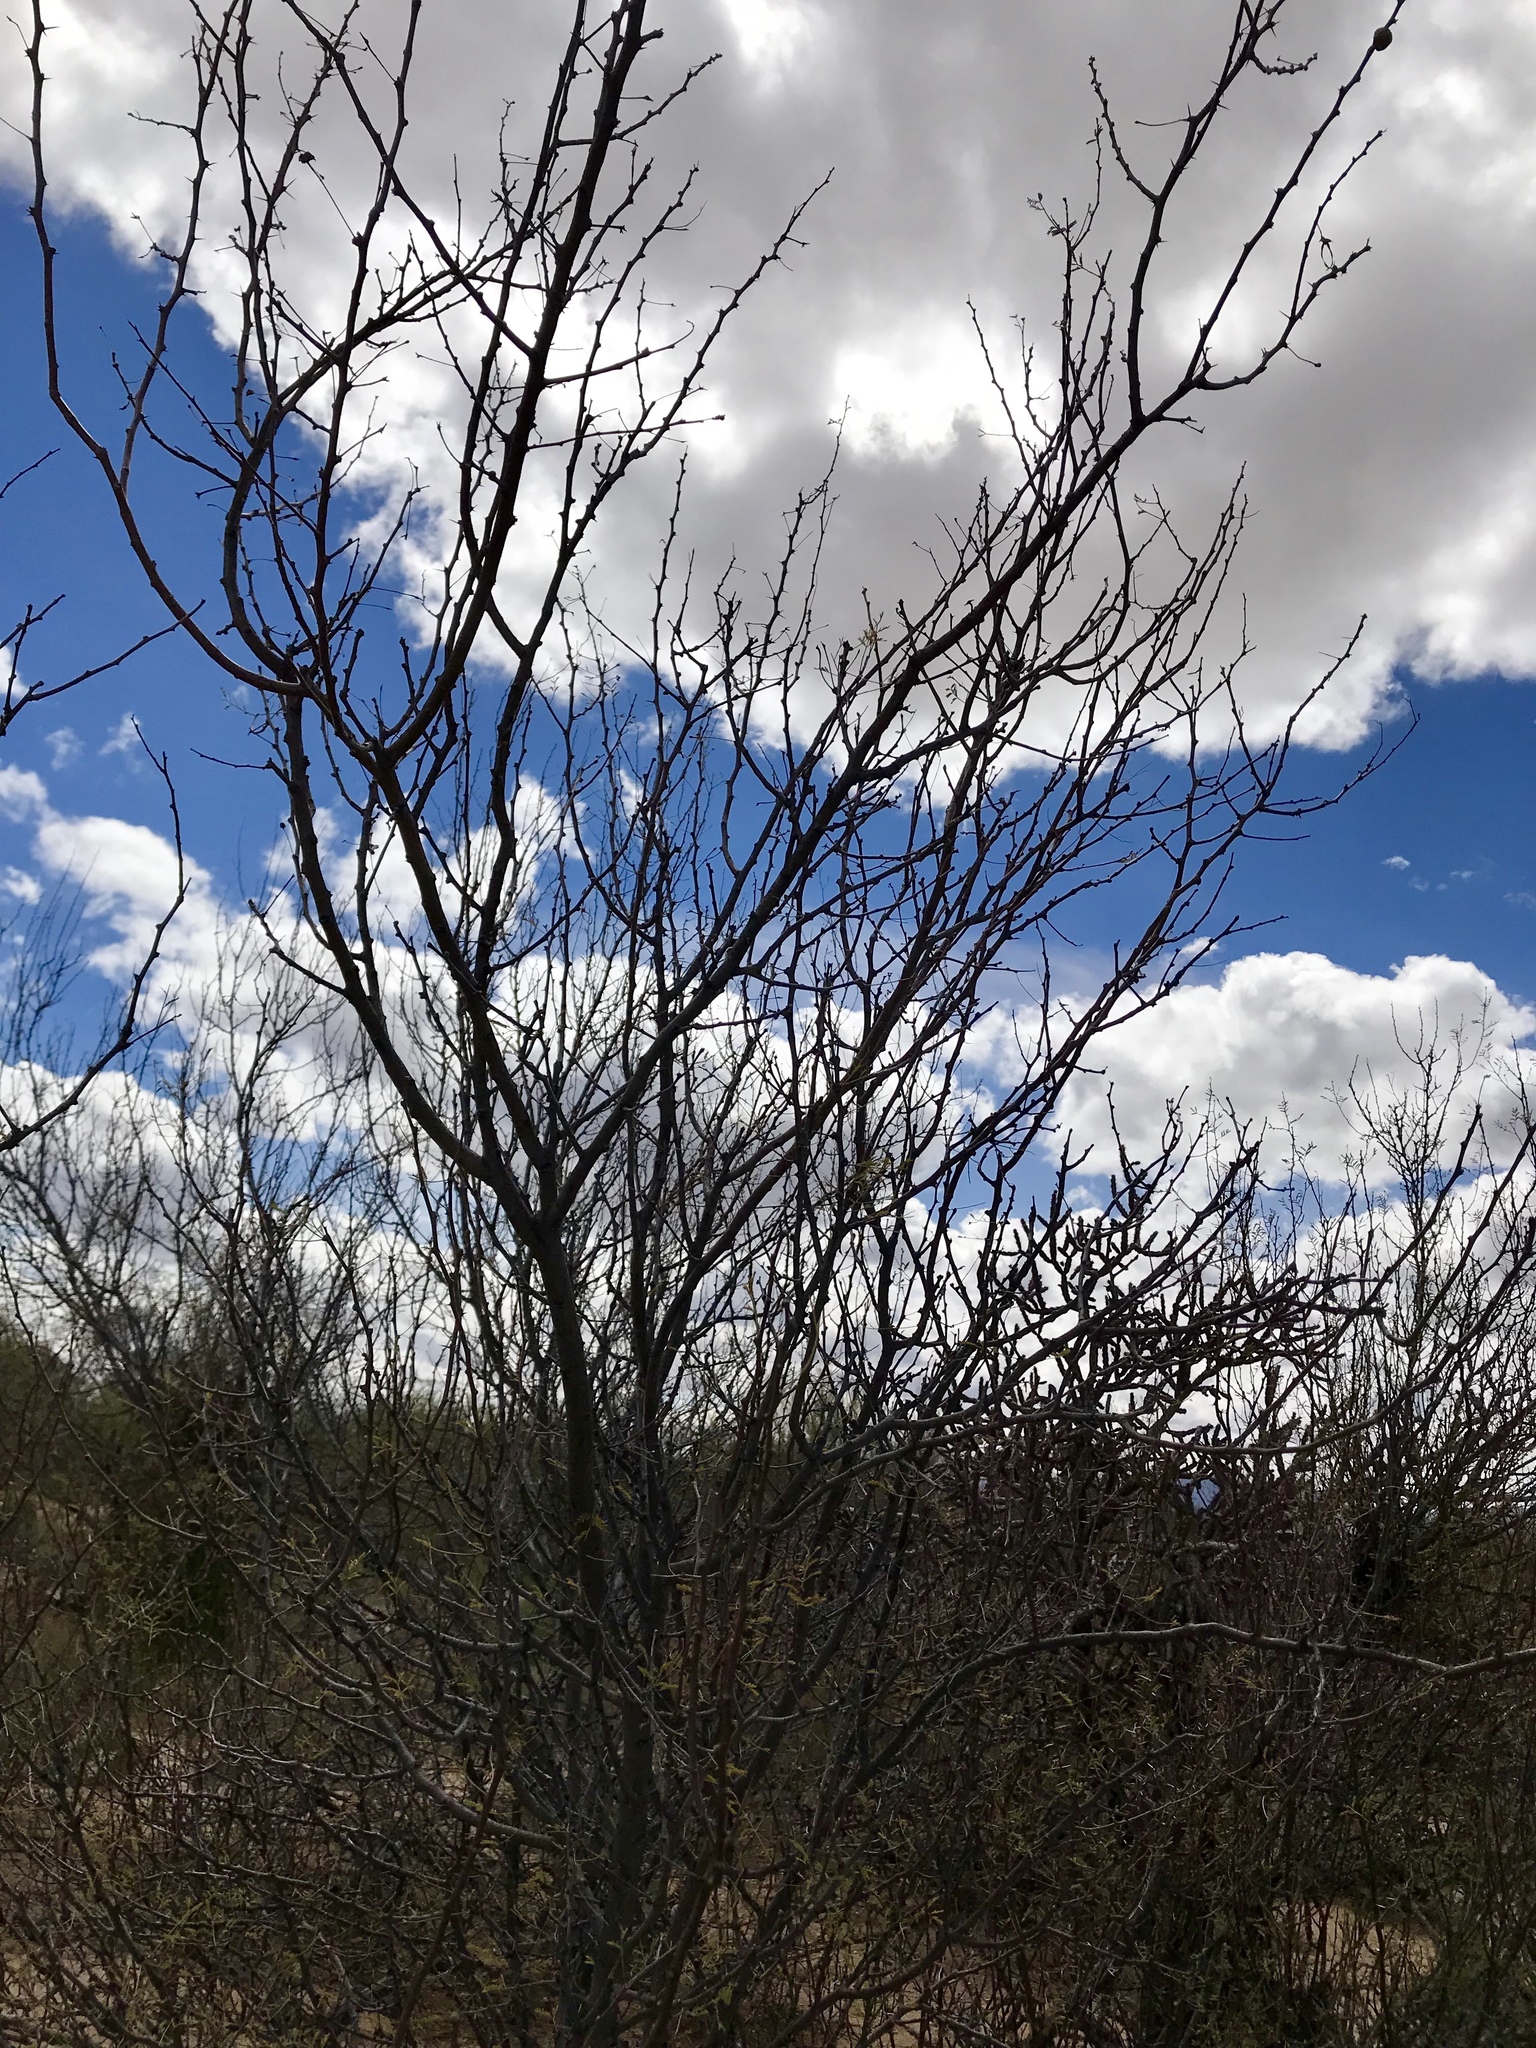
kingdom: Plantae
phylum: Tracheophyta
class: Magnoliopsida
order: Fabales
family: Fabaceae
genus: Senegalia
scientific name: Senegalia greggii
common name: Texas-mimosa
